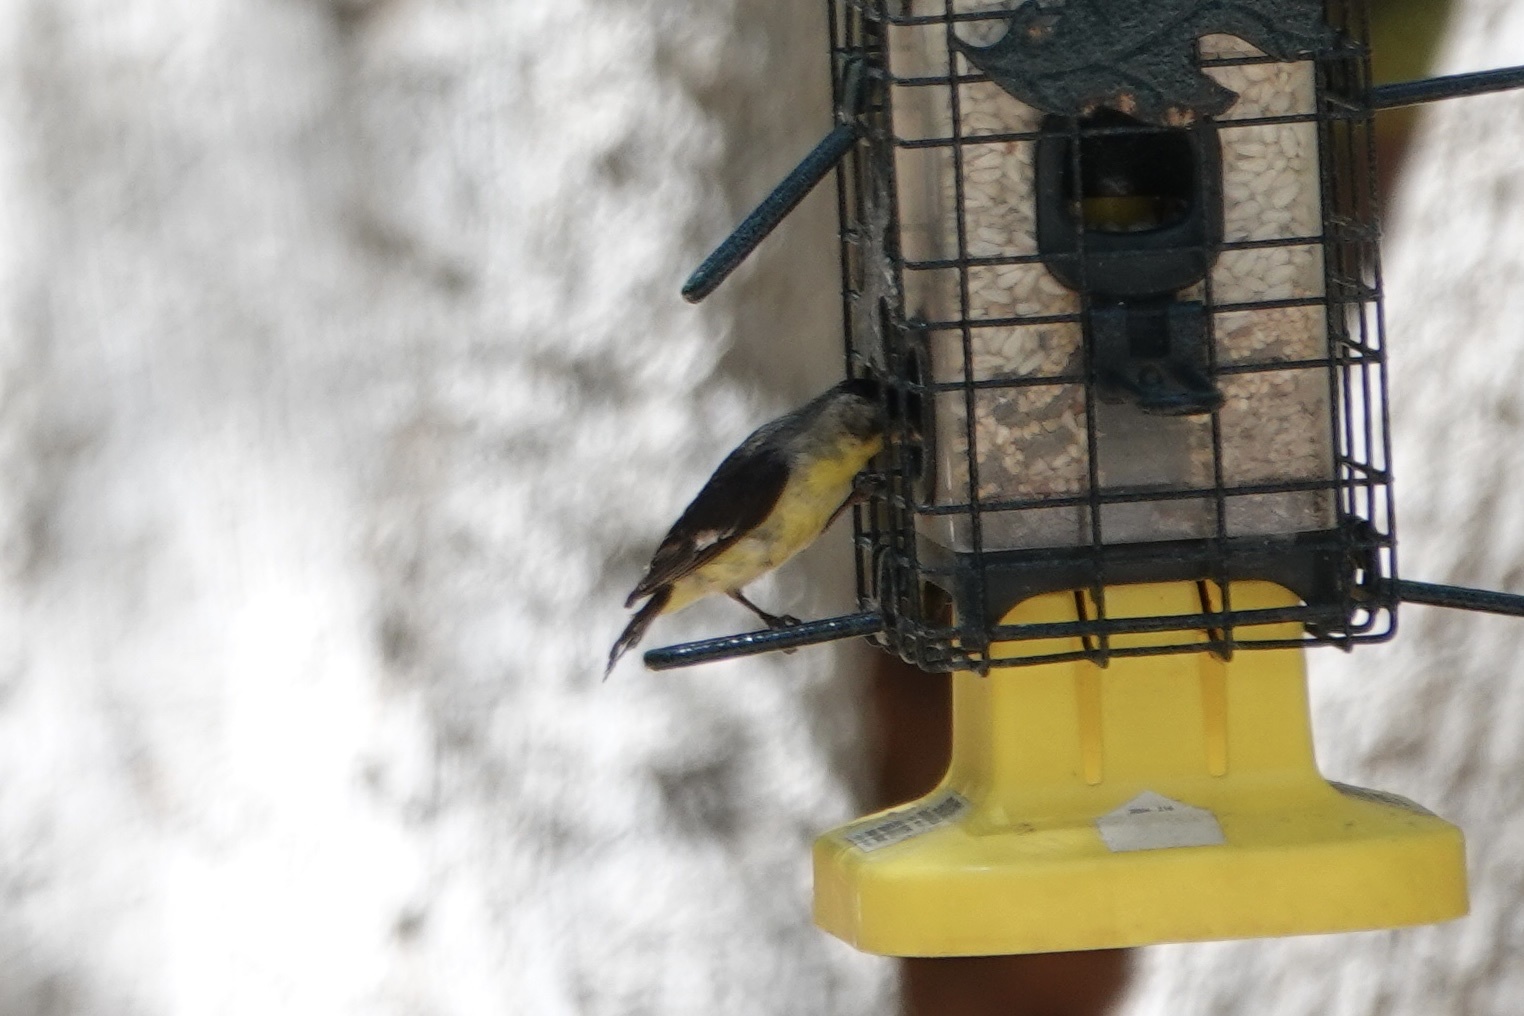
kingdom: Animalia
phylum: Chordata
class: Aves
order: Passeriformes
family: Fringillidae
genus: Spinus
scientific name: Spinus psaltria
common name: Lesser goldfinch
